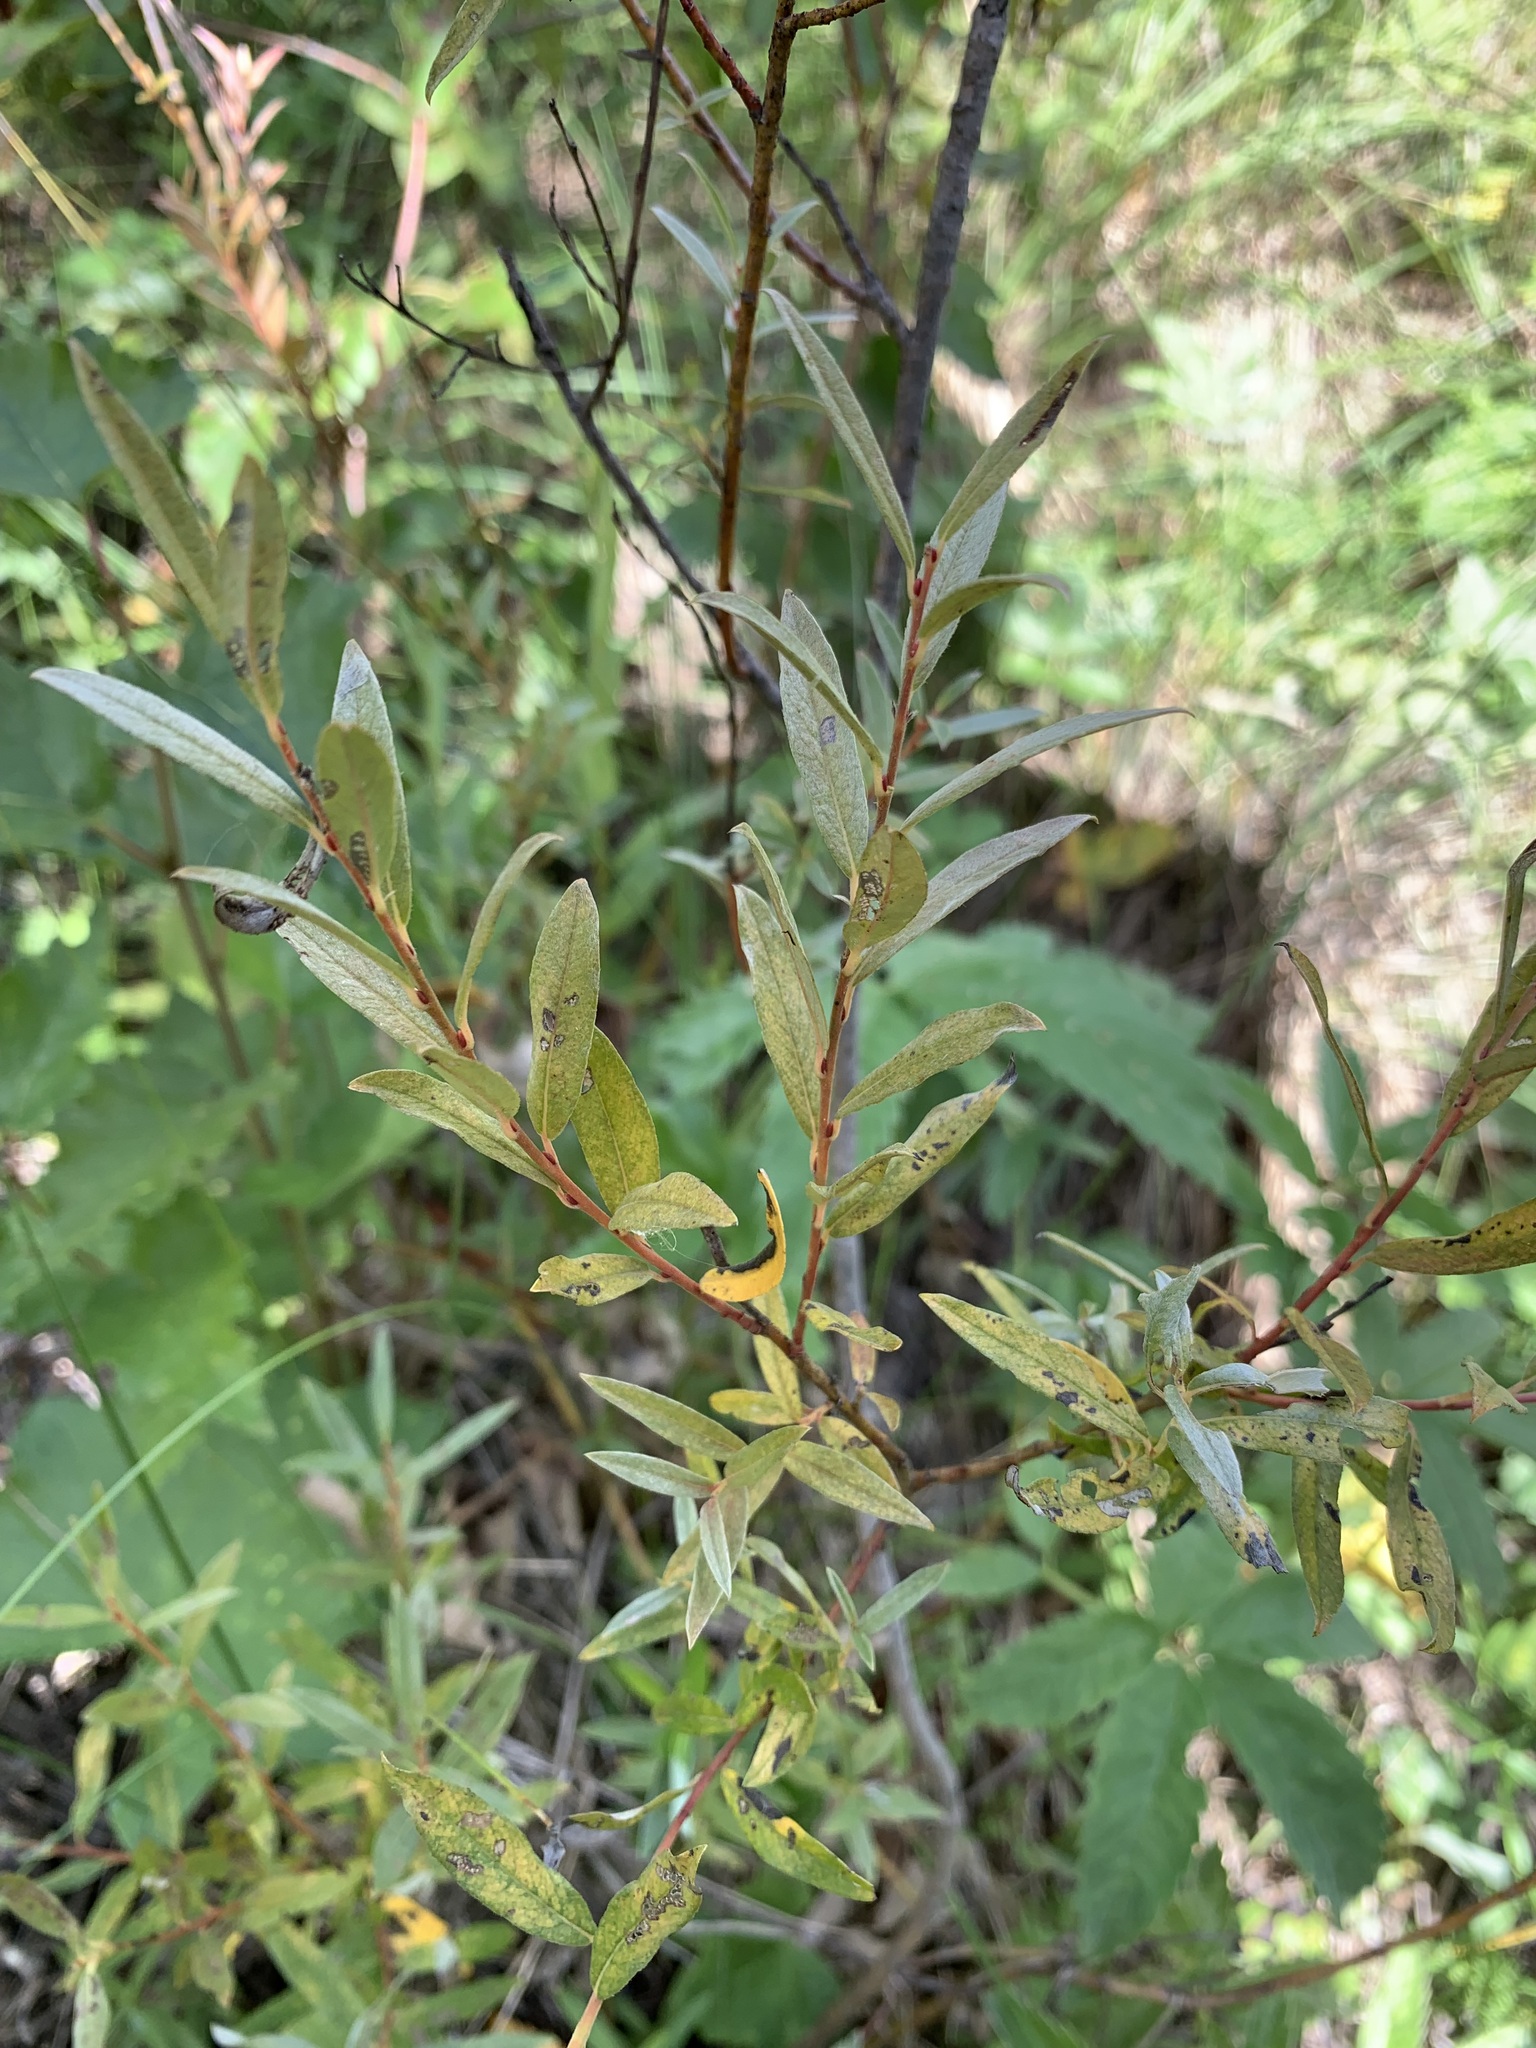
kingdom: Plantae
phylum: Tracheophyta
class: Magnoliopsida
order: Malpighiales
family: Salicaceae
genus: Salix
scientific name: Salix rosmarinifolia
